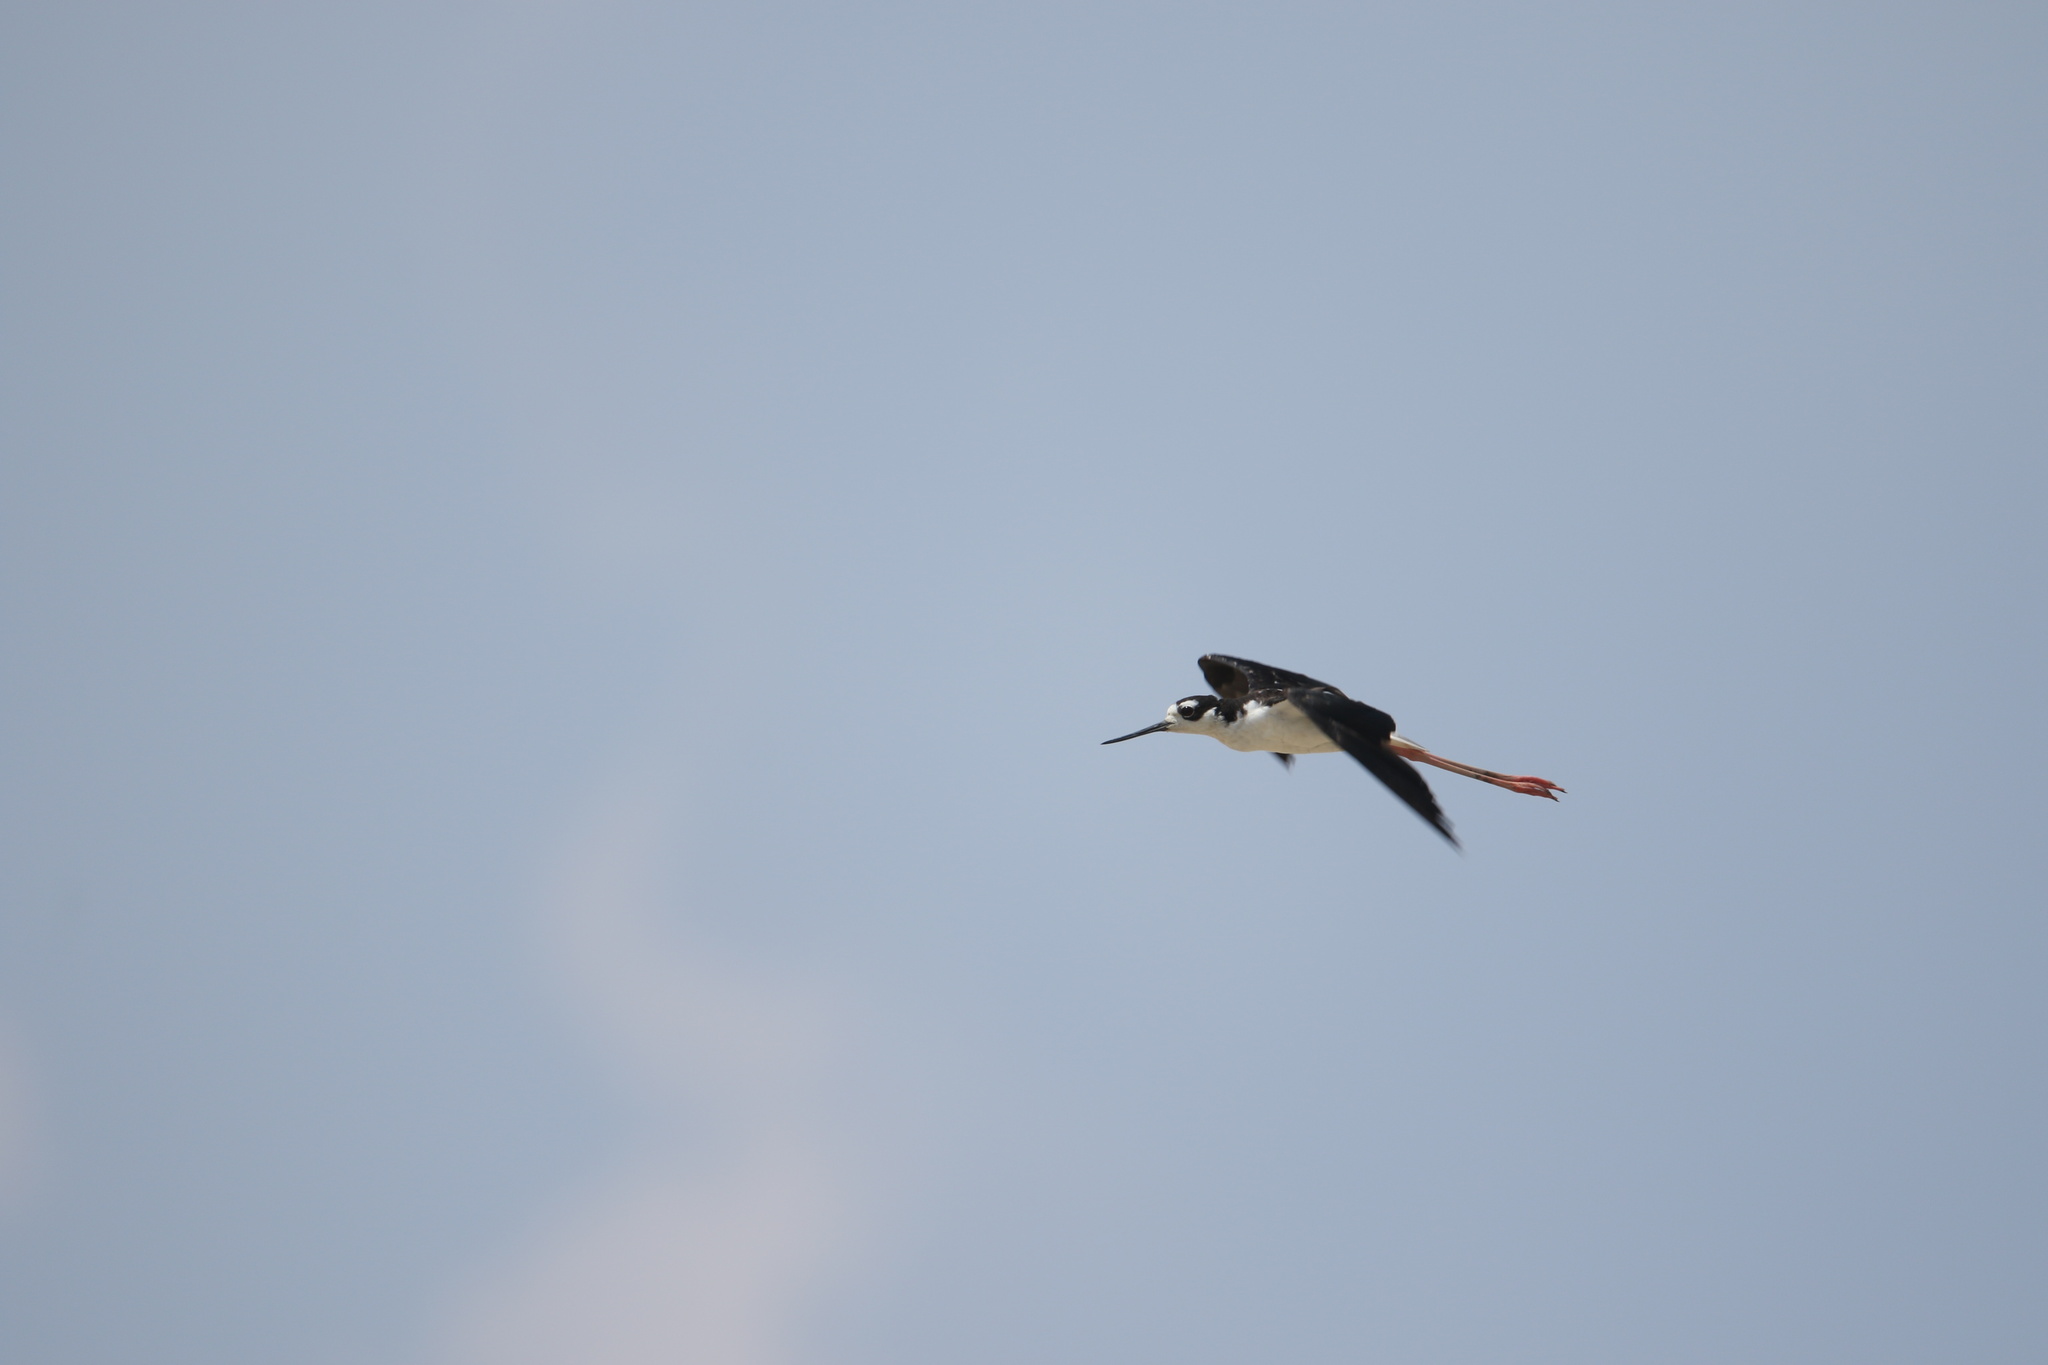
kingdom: Animalia
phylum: Chordata
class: Aves
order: Charadriiformes
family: Recurvirostridae
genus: Himantopus
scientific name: Himantopus mexicanus
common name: Black-necked stilt
